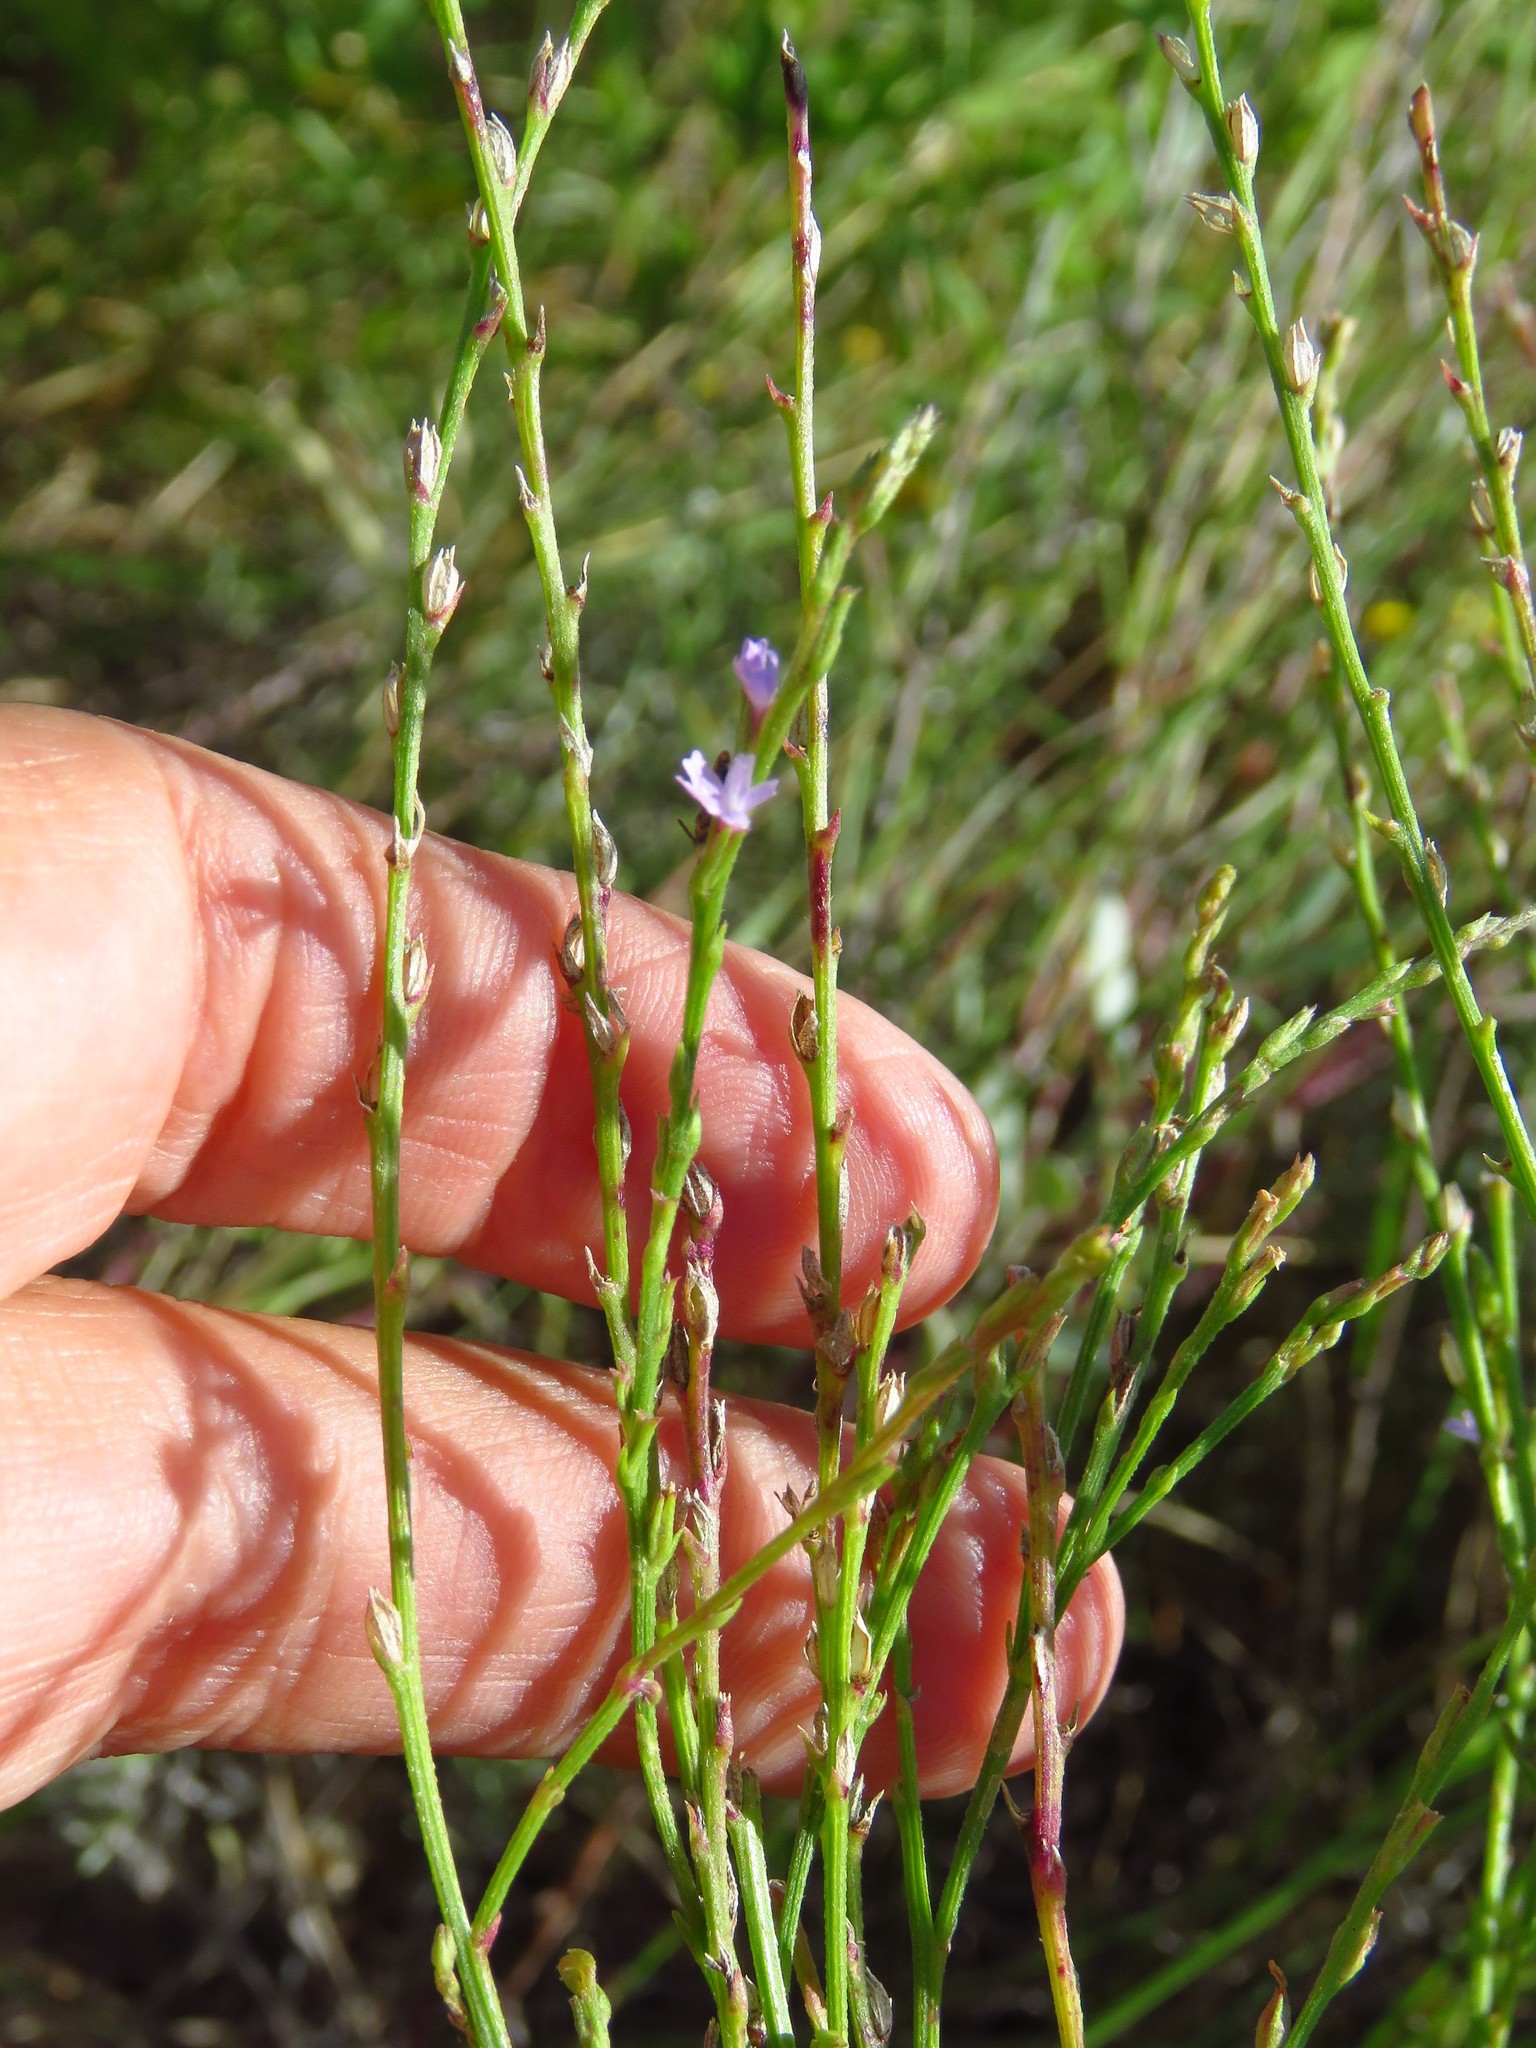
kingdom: Plantae
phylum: Tracheophyta
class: Magnoliopsida
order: Lamiales
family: Verbenaceae
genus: Verbena
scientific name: Verbena halei
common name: Texas vervain
